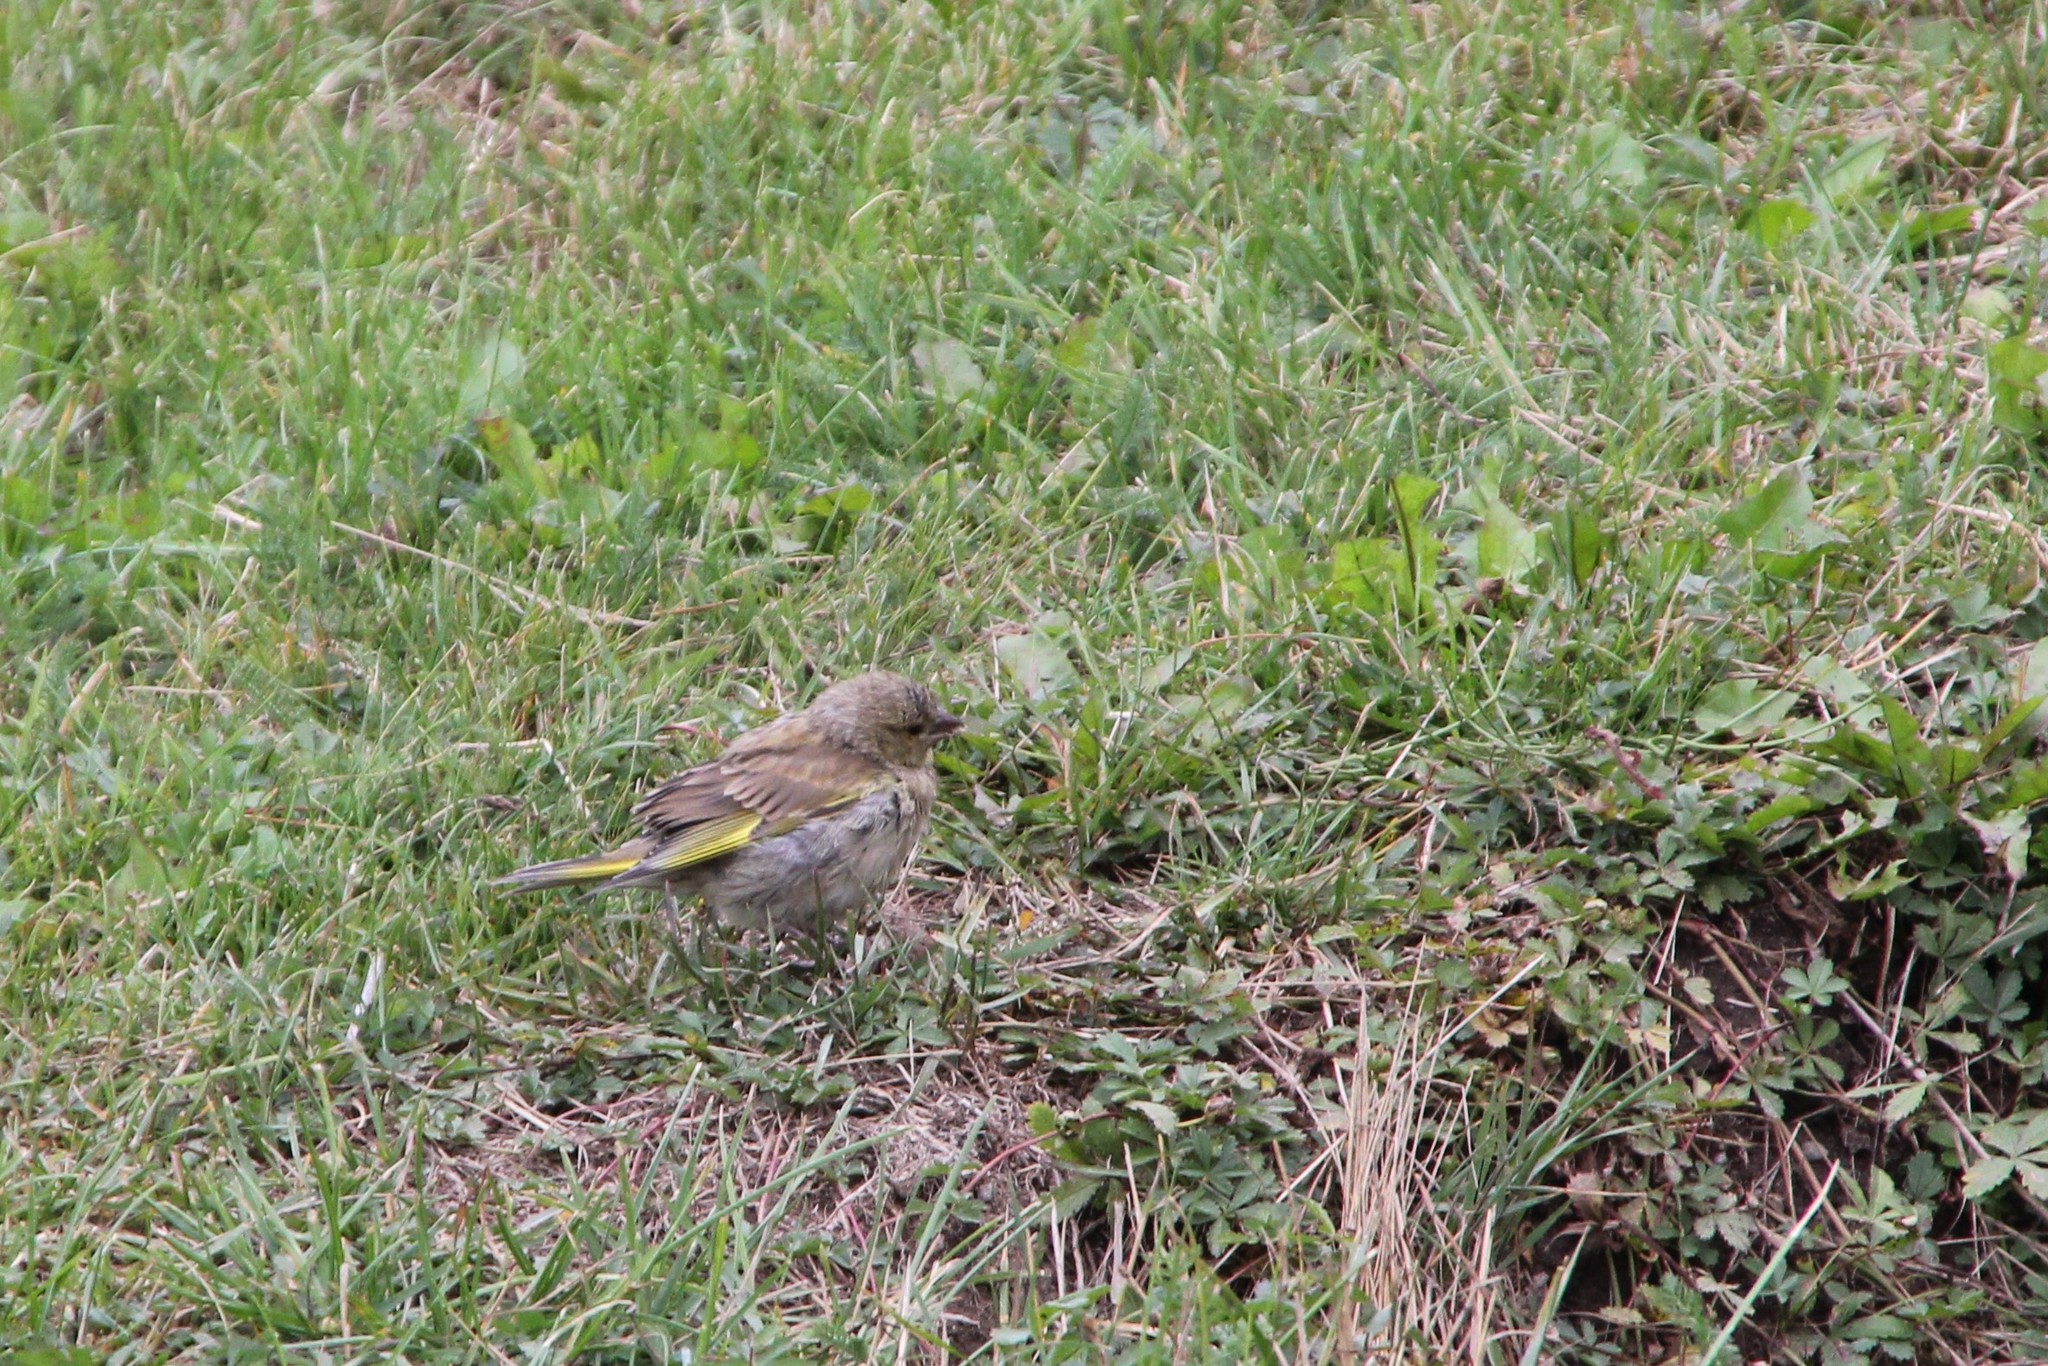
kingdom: Plantae
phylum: Tracheophyta
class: Liliopsida
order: Poales
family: Poaceae
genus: Chloris
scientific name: Chloris chloris
